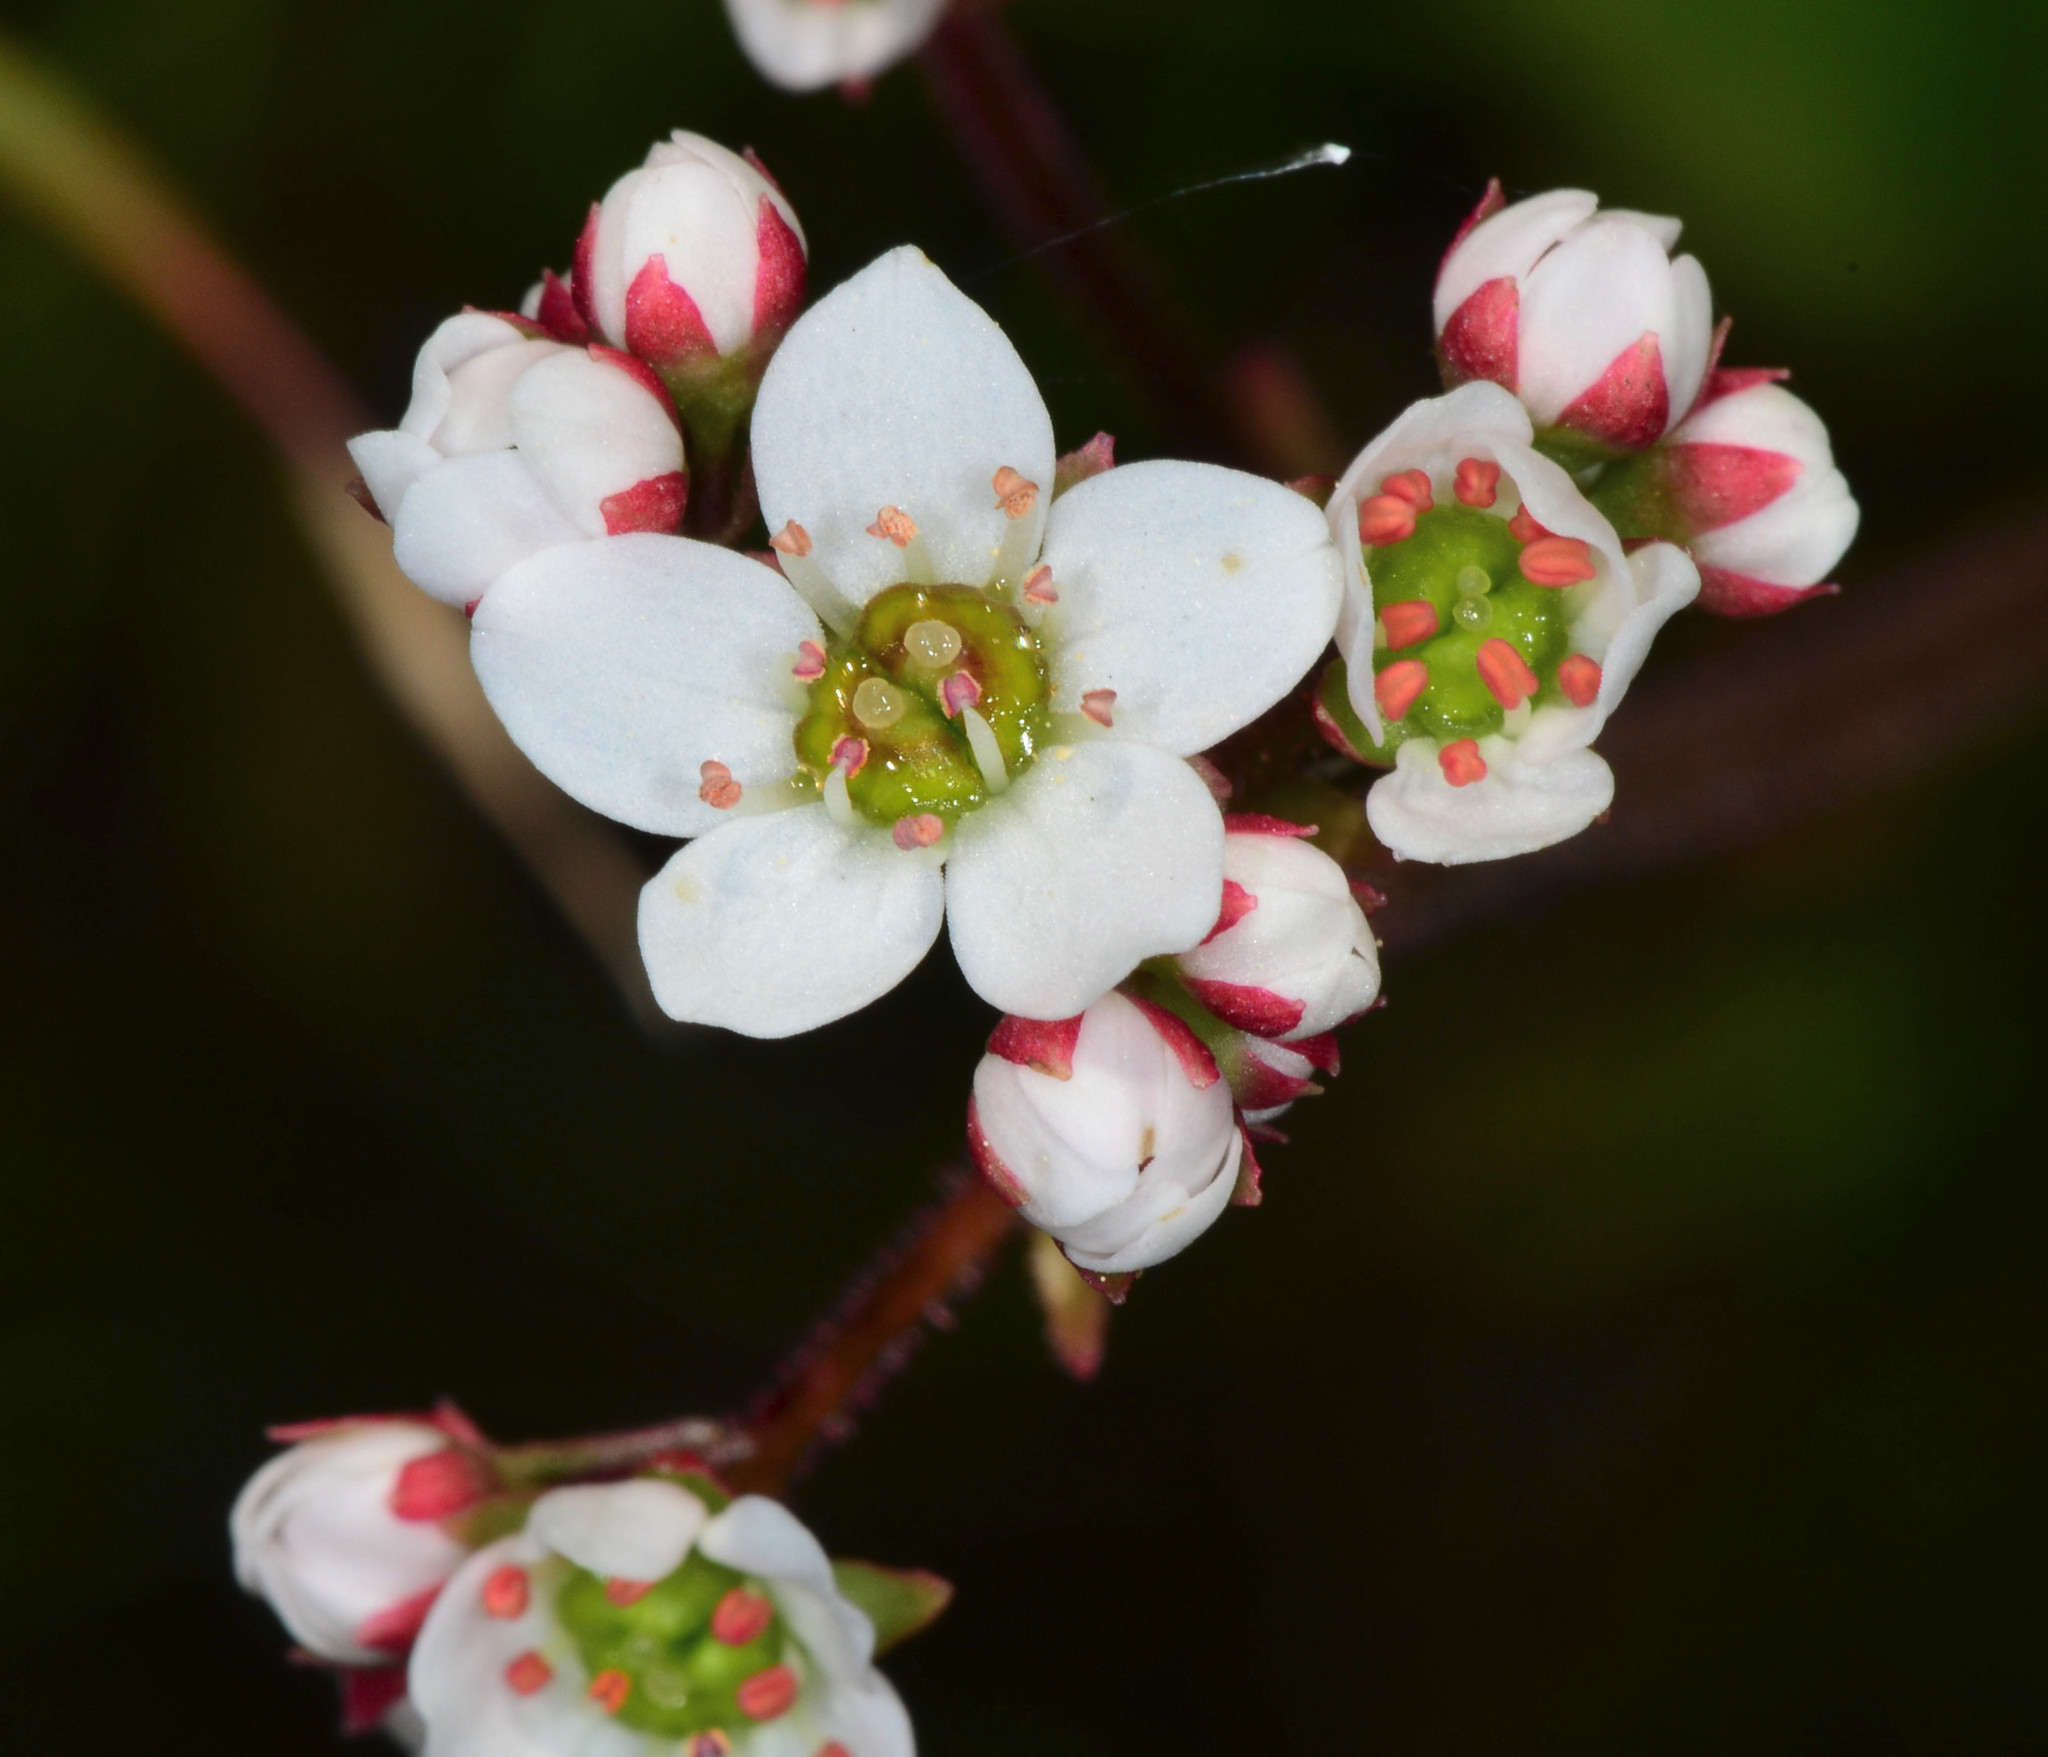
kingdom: Plantae
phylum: Tracheophyta
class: Magnoliopsida
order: Saxifragales
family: Saxifragaceae
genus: Micranthes
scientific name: Micranthes californica
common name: California saxifrage
